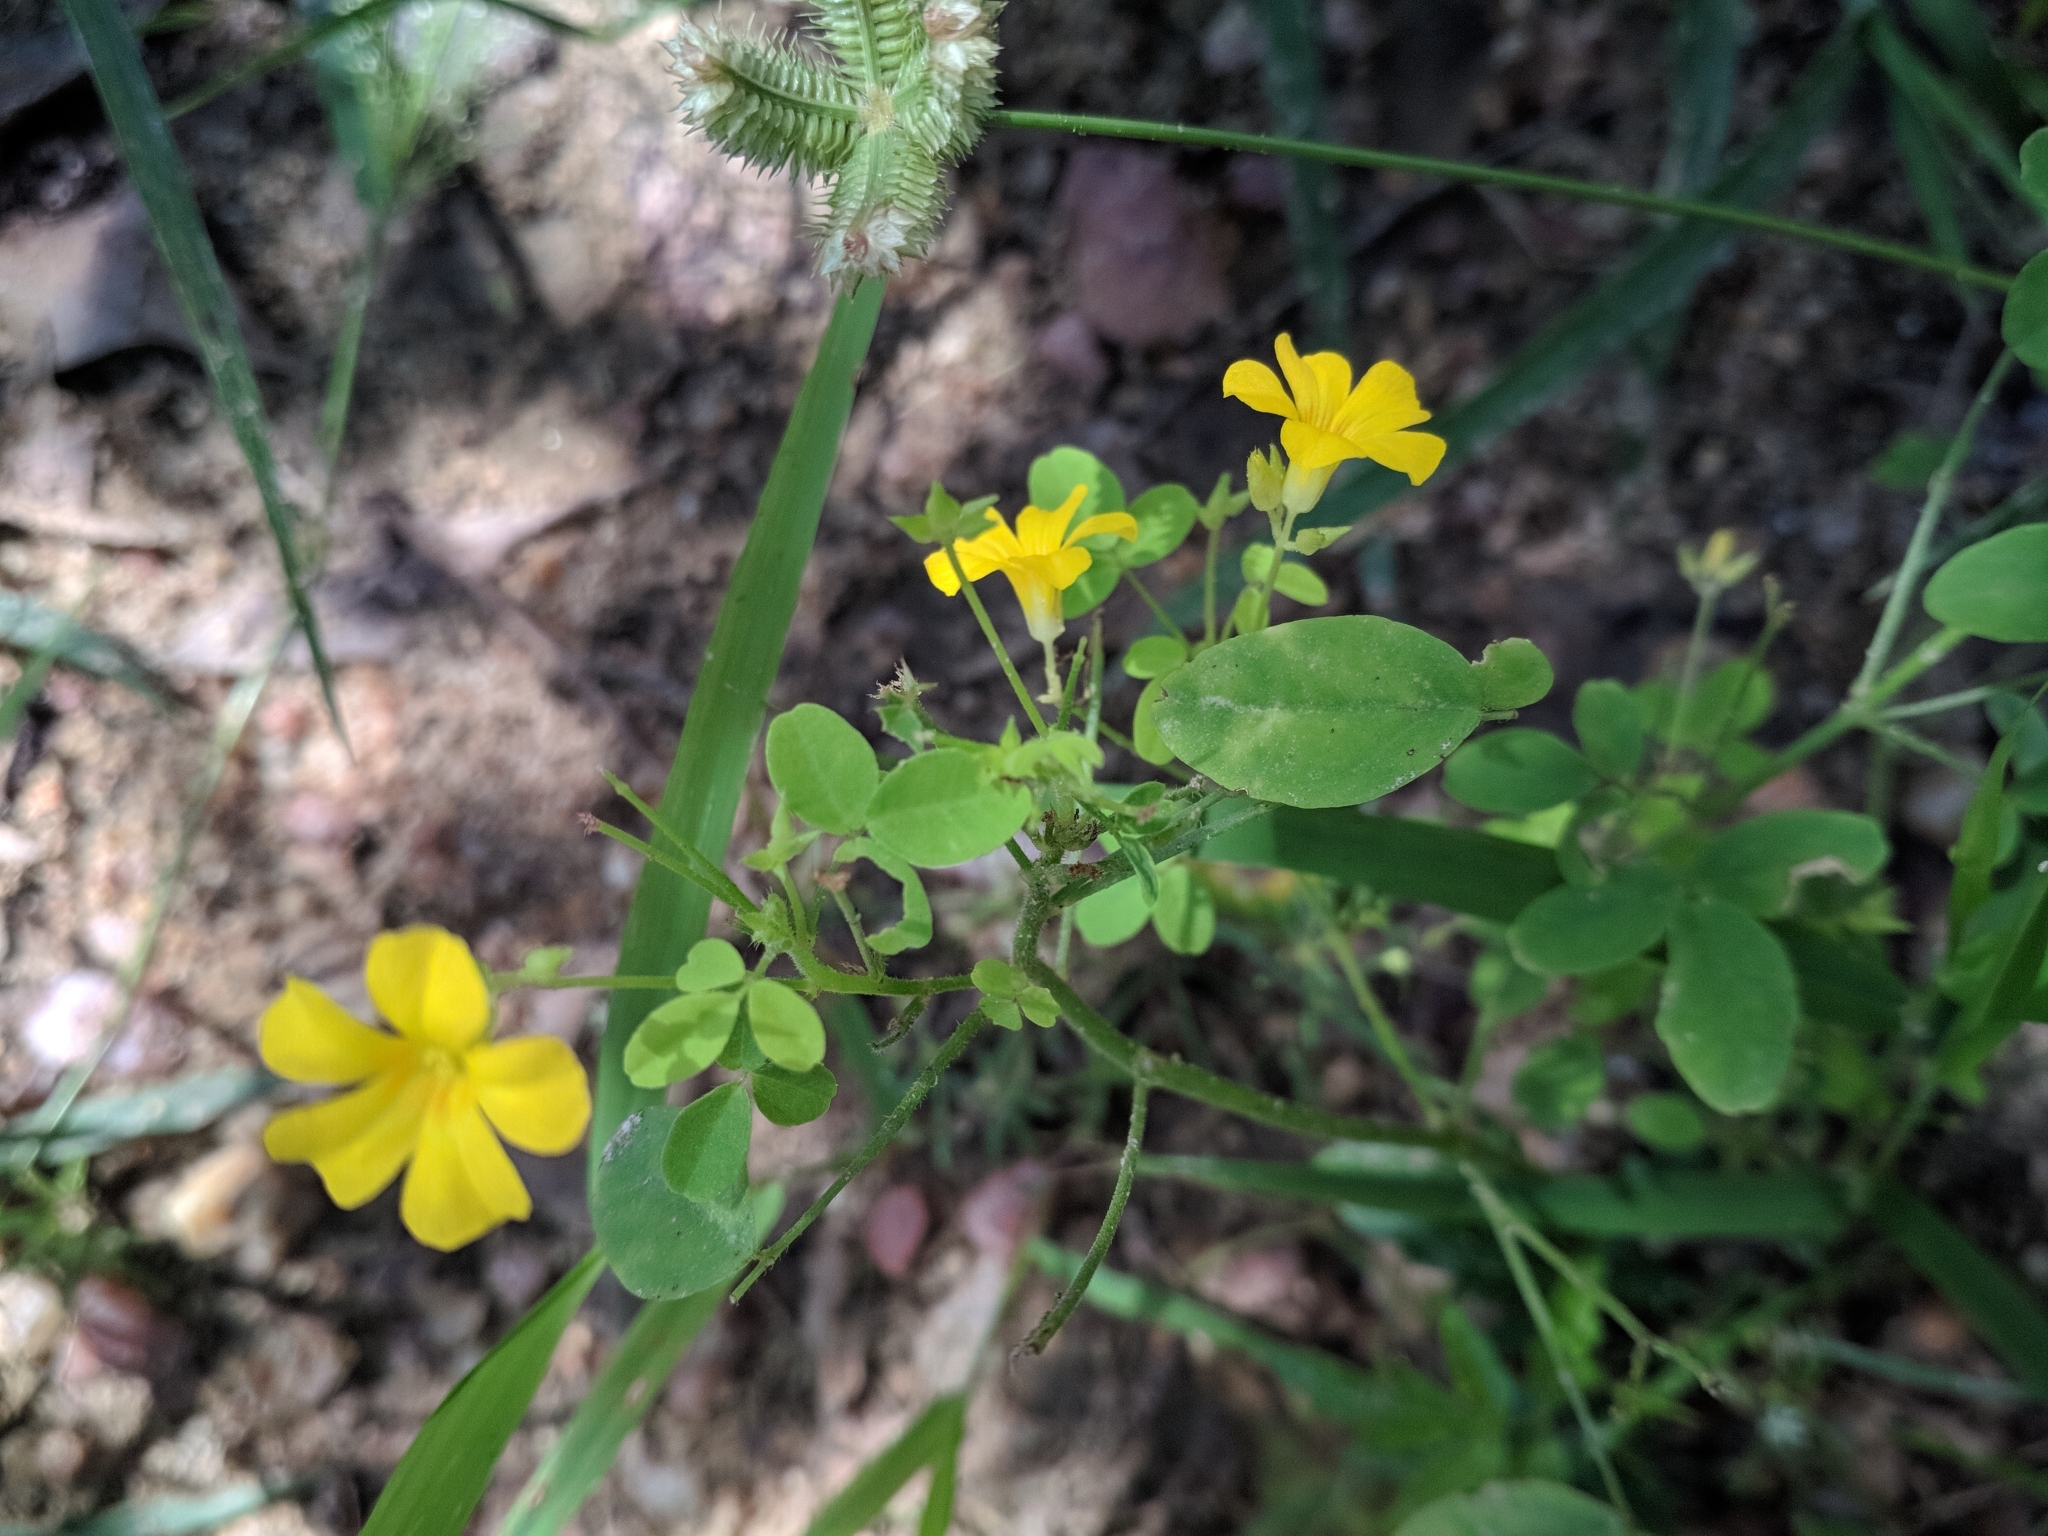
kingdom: Plantae
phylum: Tracheophyta
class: Magnoliopsida
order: Oxalidales
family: Oxalidaceae
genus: Oxalis
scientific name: Oxalis divaricata
